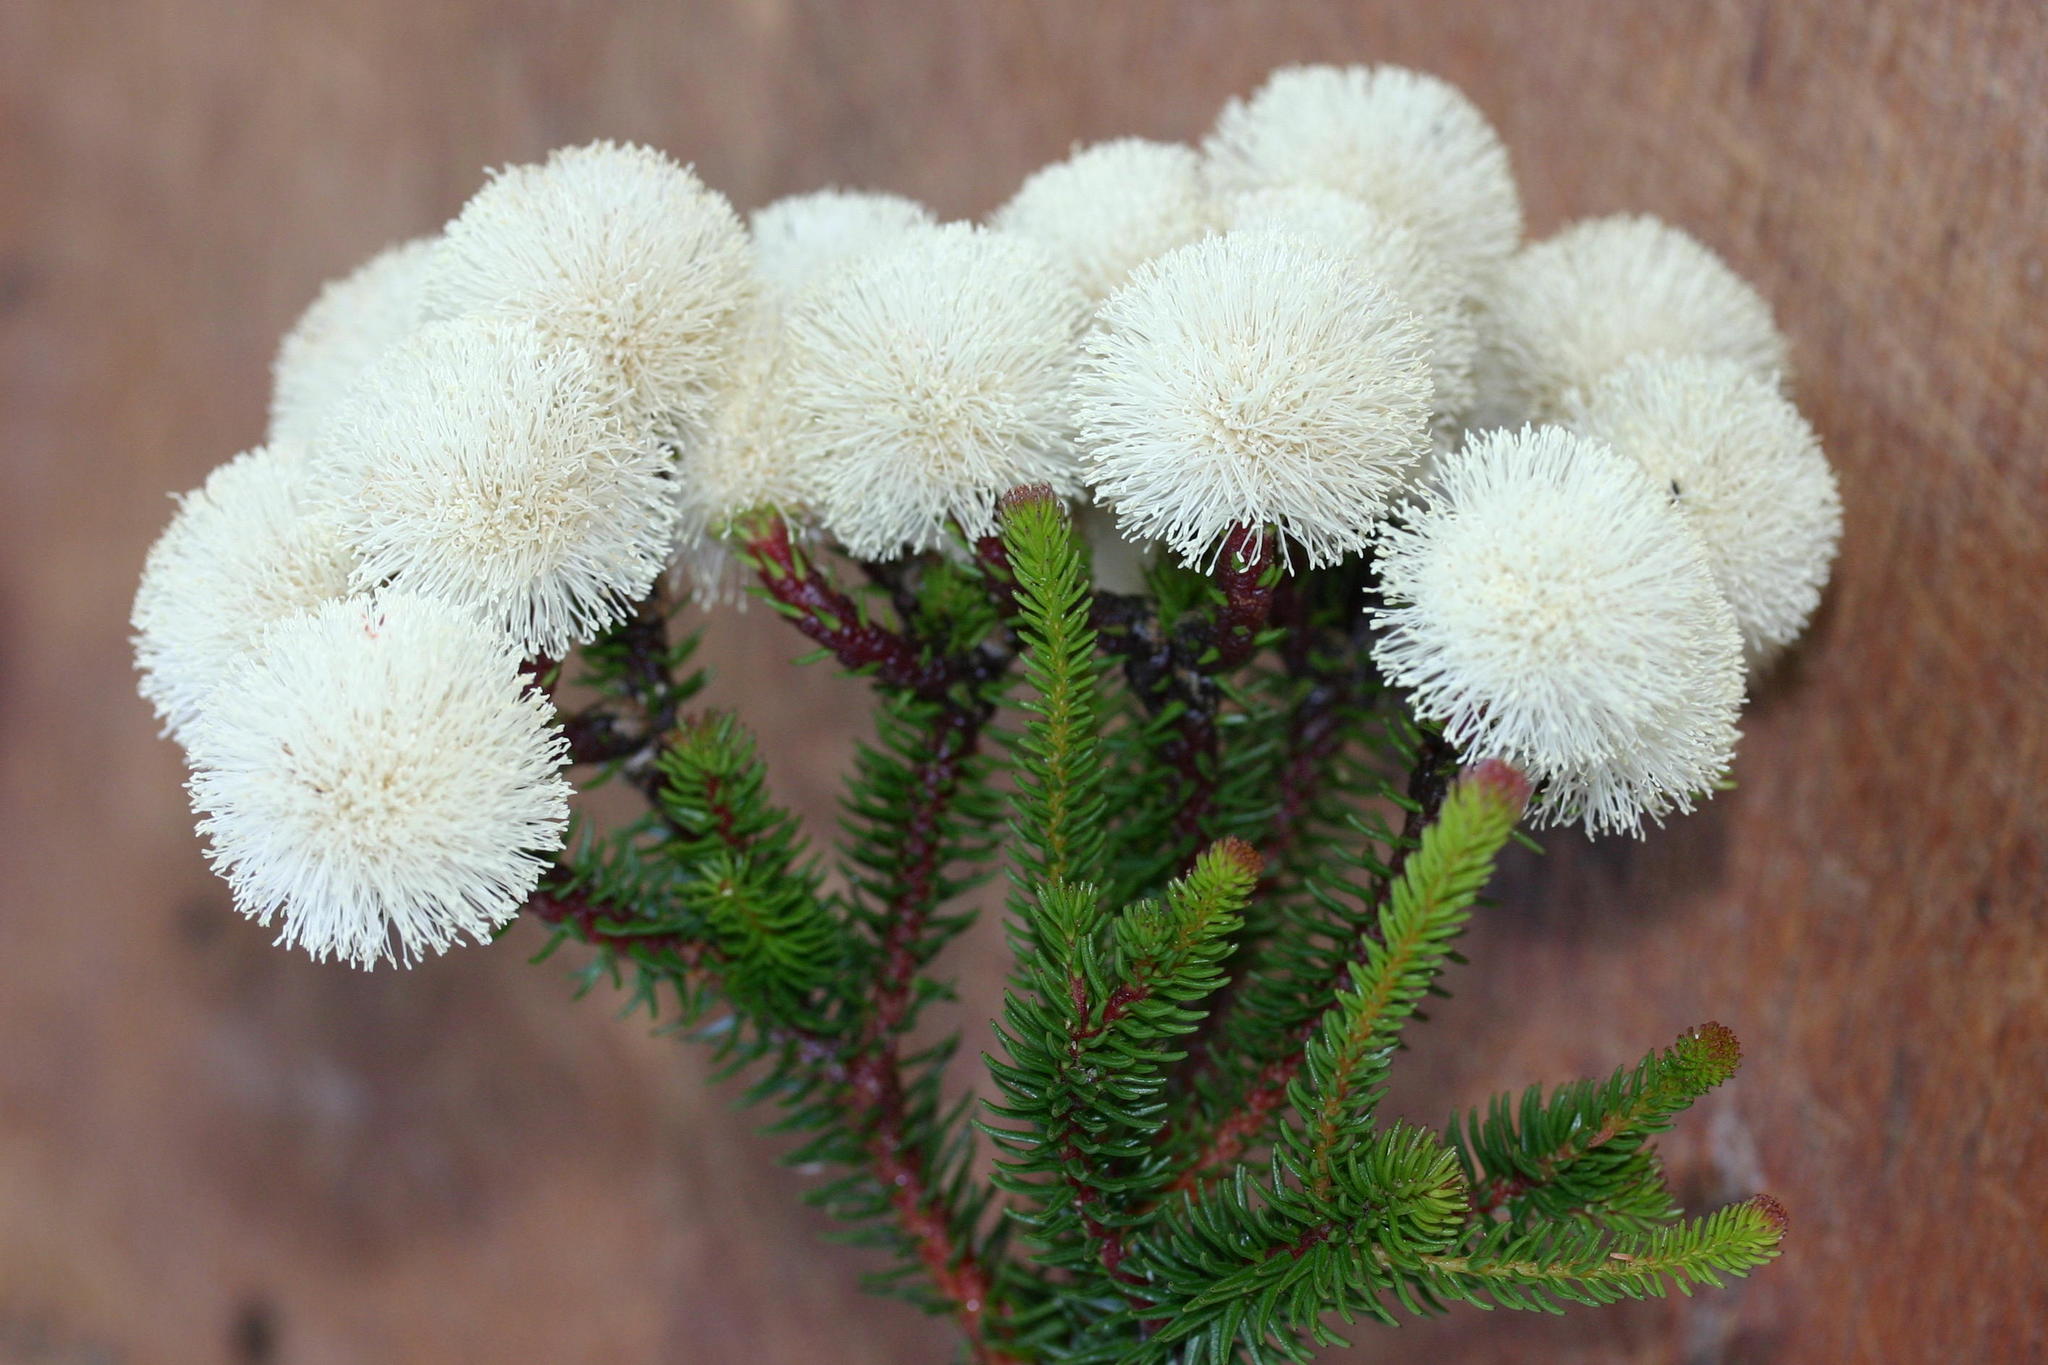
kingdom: Plantae
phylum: Tracheophyta
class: Magnoliopsida
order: Bruniales
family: Bruniaceae
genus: Berzelia
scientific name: Berzelia galpinii
